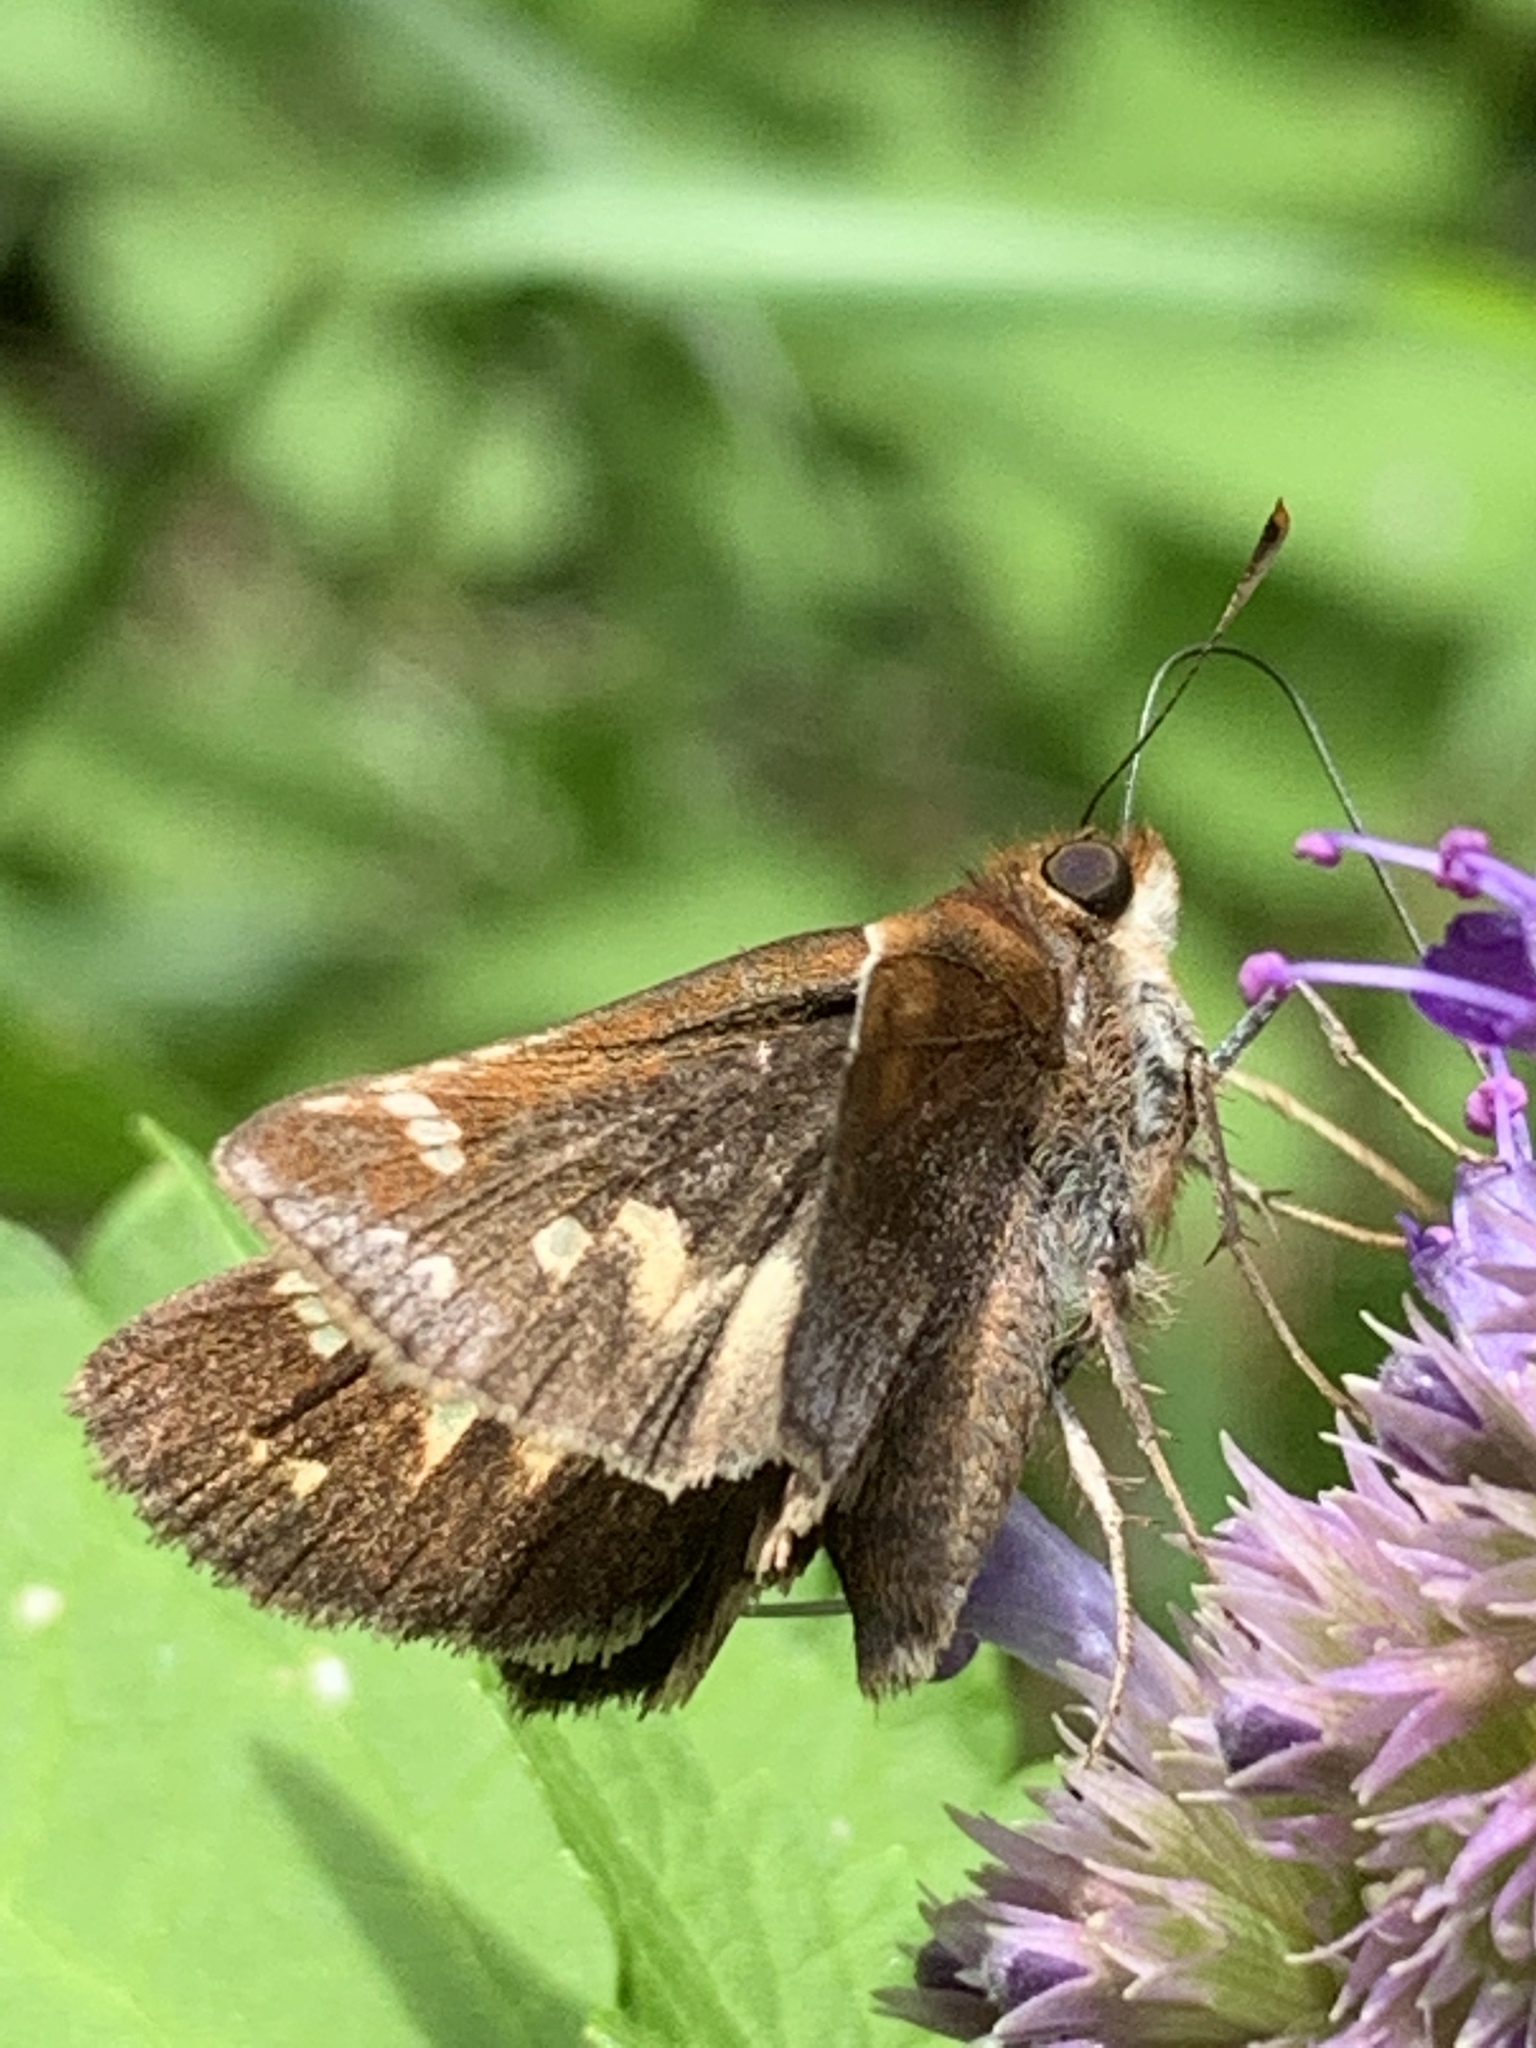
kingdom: Animalia
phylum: Arthropoda
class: Insecta
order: Lepidoptera
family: Hesperiidae
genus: Lon
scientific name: Lon zabulon
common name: Zabulon skipper
